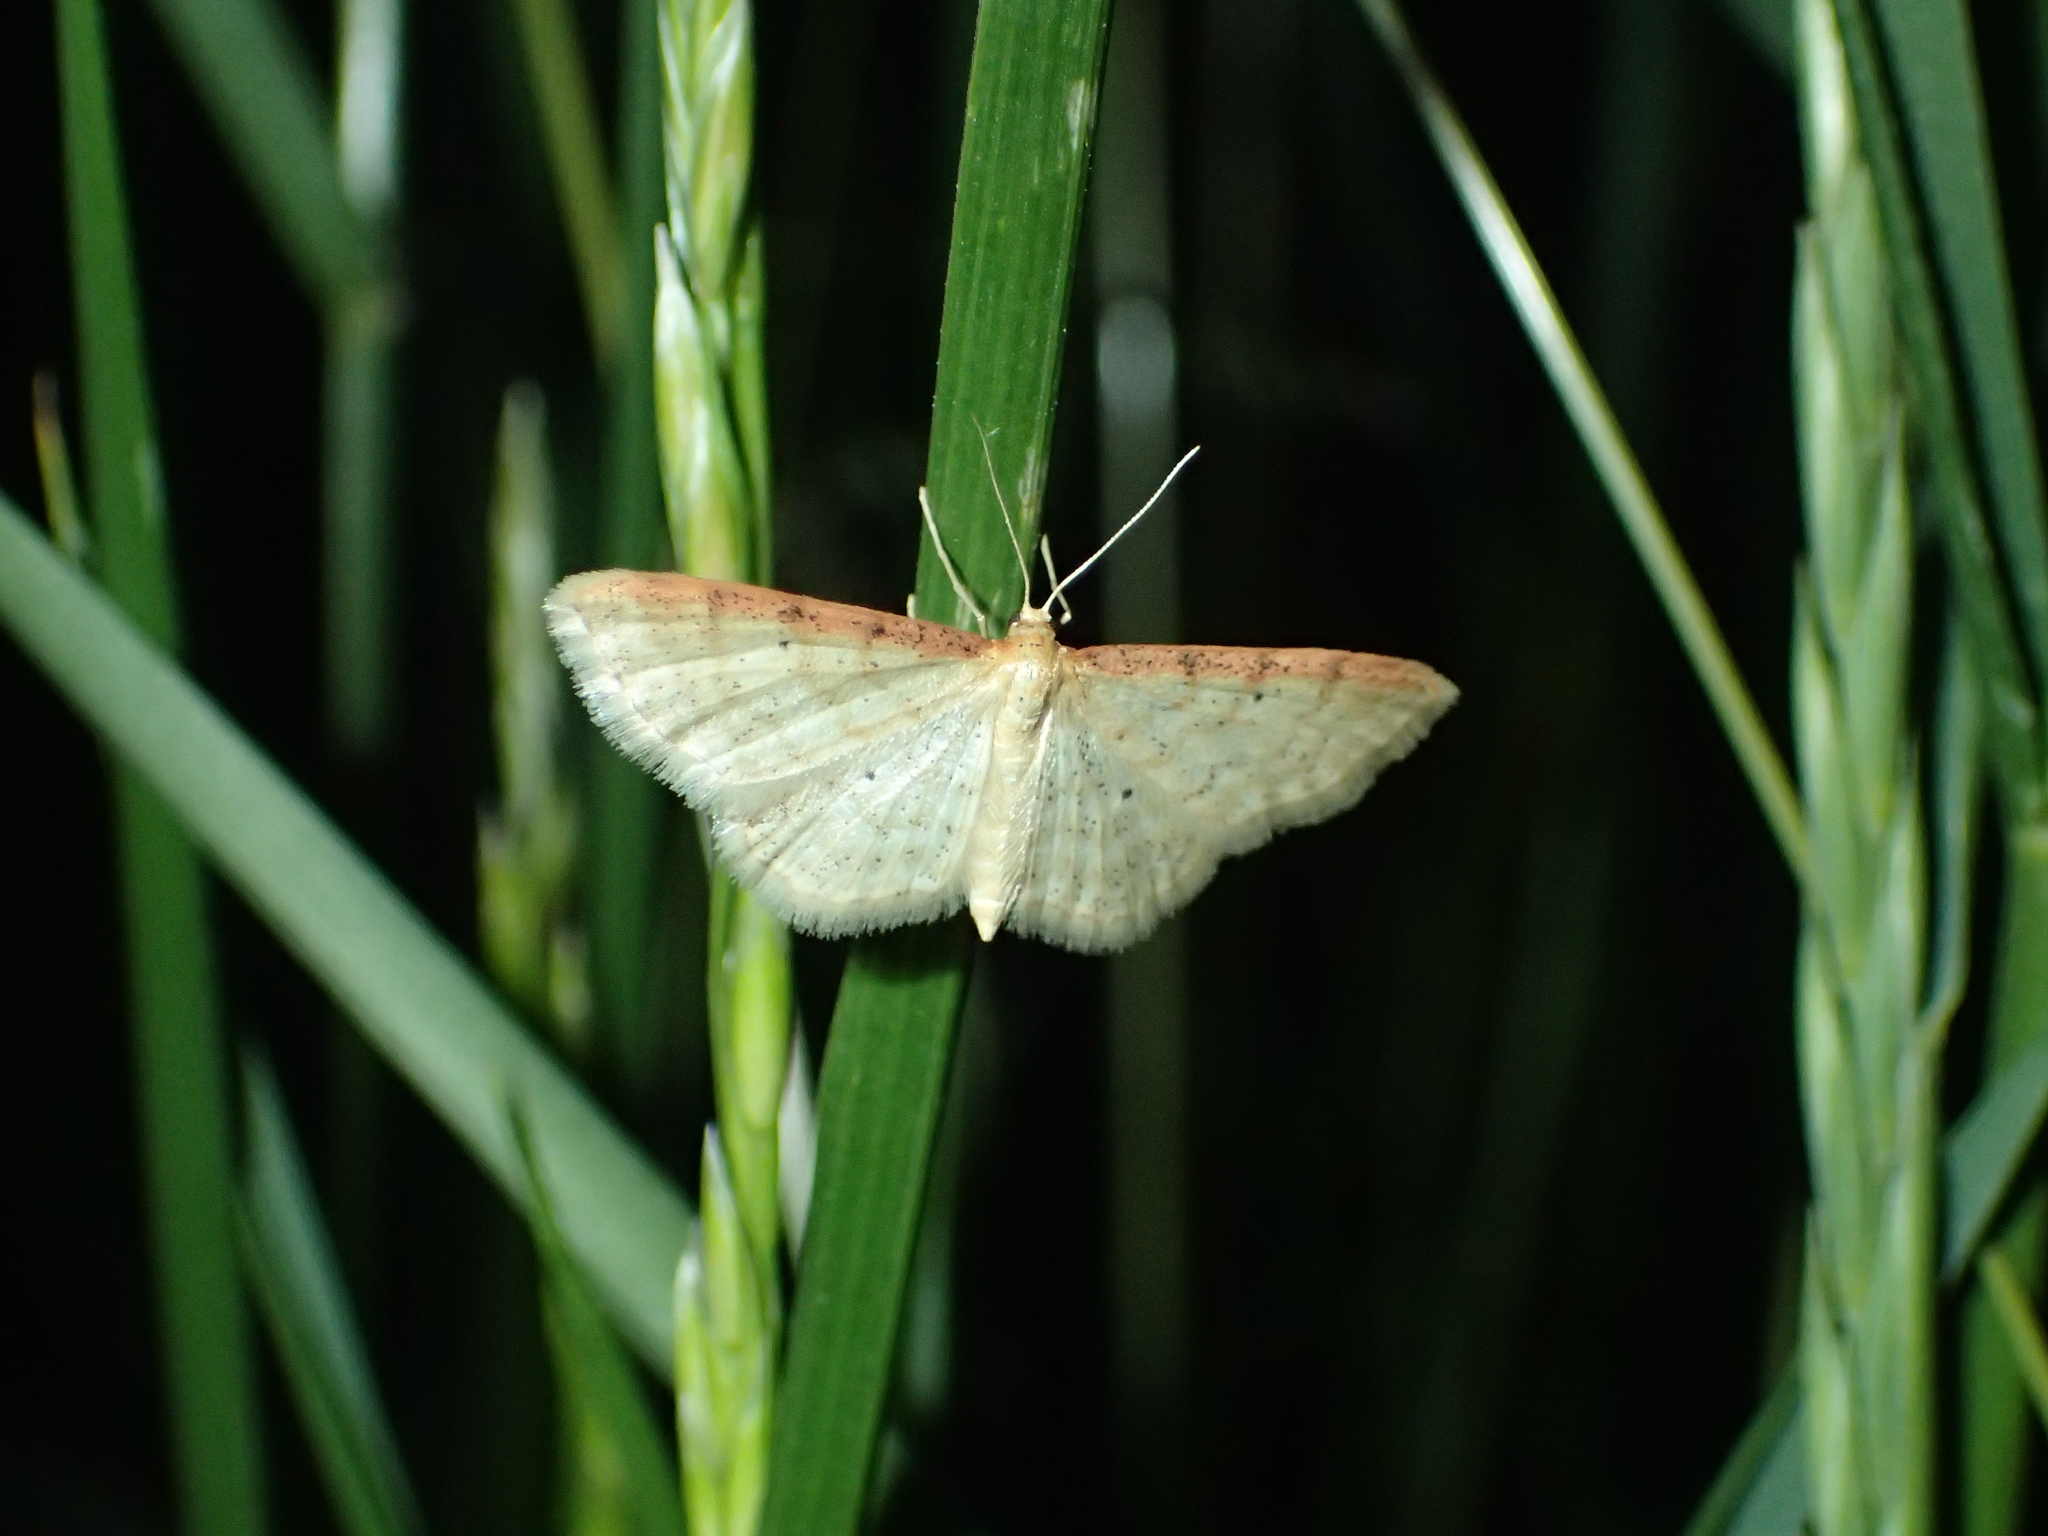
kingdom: Animalia
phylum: Arthropoda
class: Insecta
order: Lepidoptera
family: Geometridae
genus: Idaea
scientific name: Idaea humiliata
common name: Isle of wight wave
